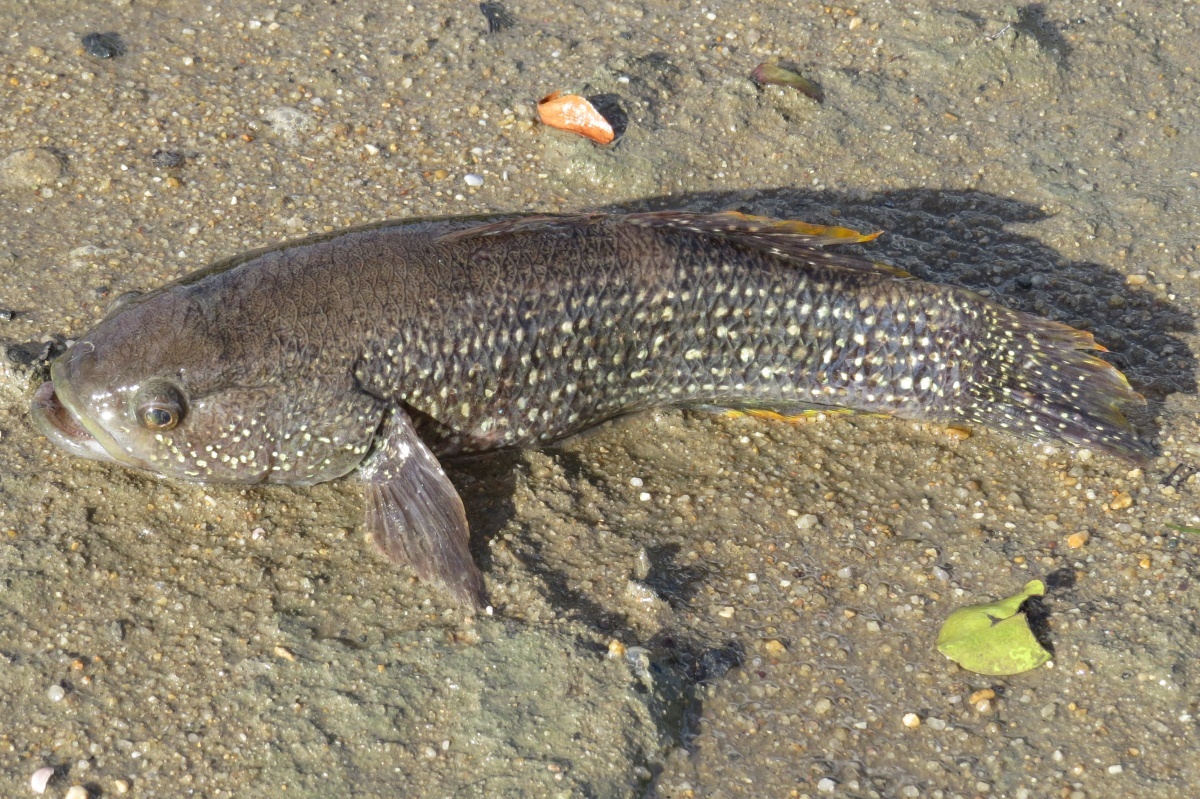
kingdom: Animalia
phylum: Chordata
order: Perciformes
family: Eleotridae
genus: Ophiocara
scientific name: Ophiocara porocephala
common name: Spangled gudgeon
